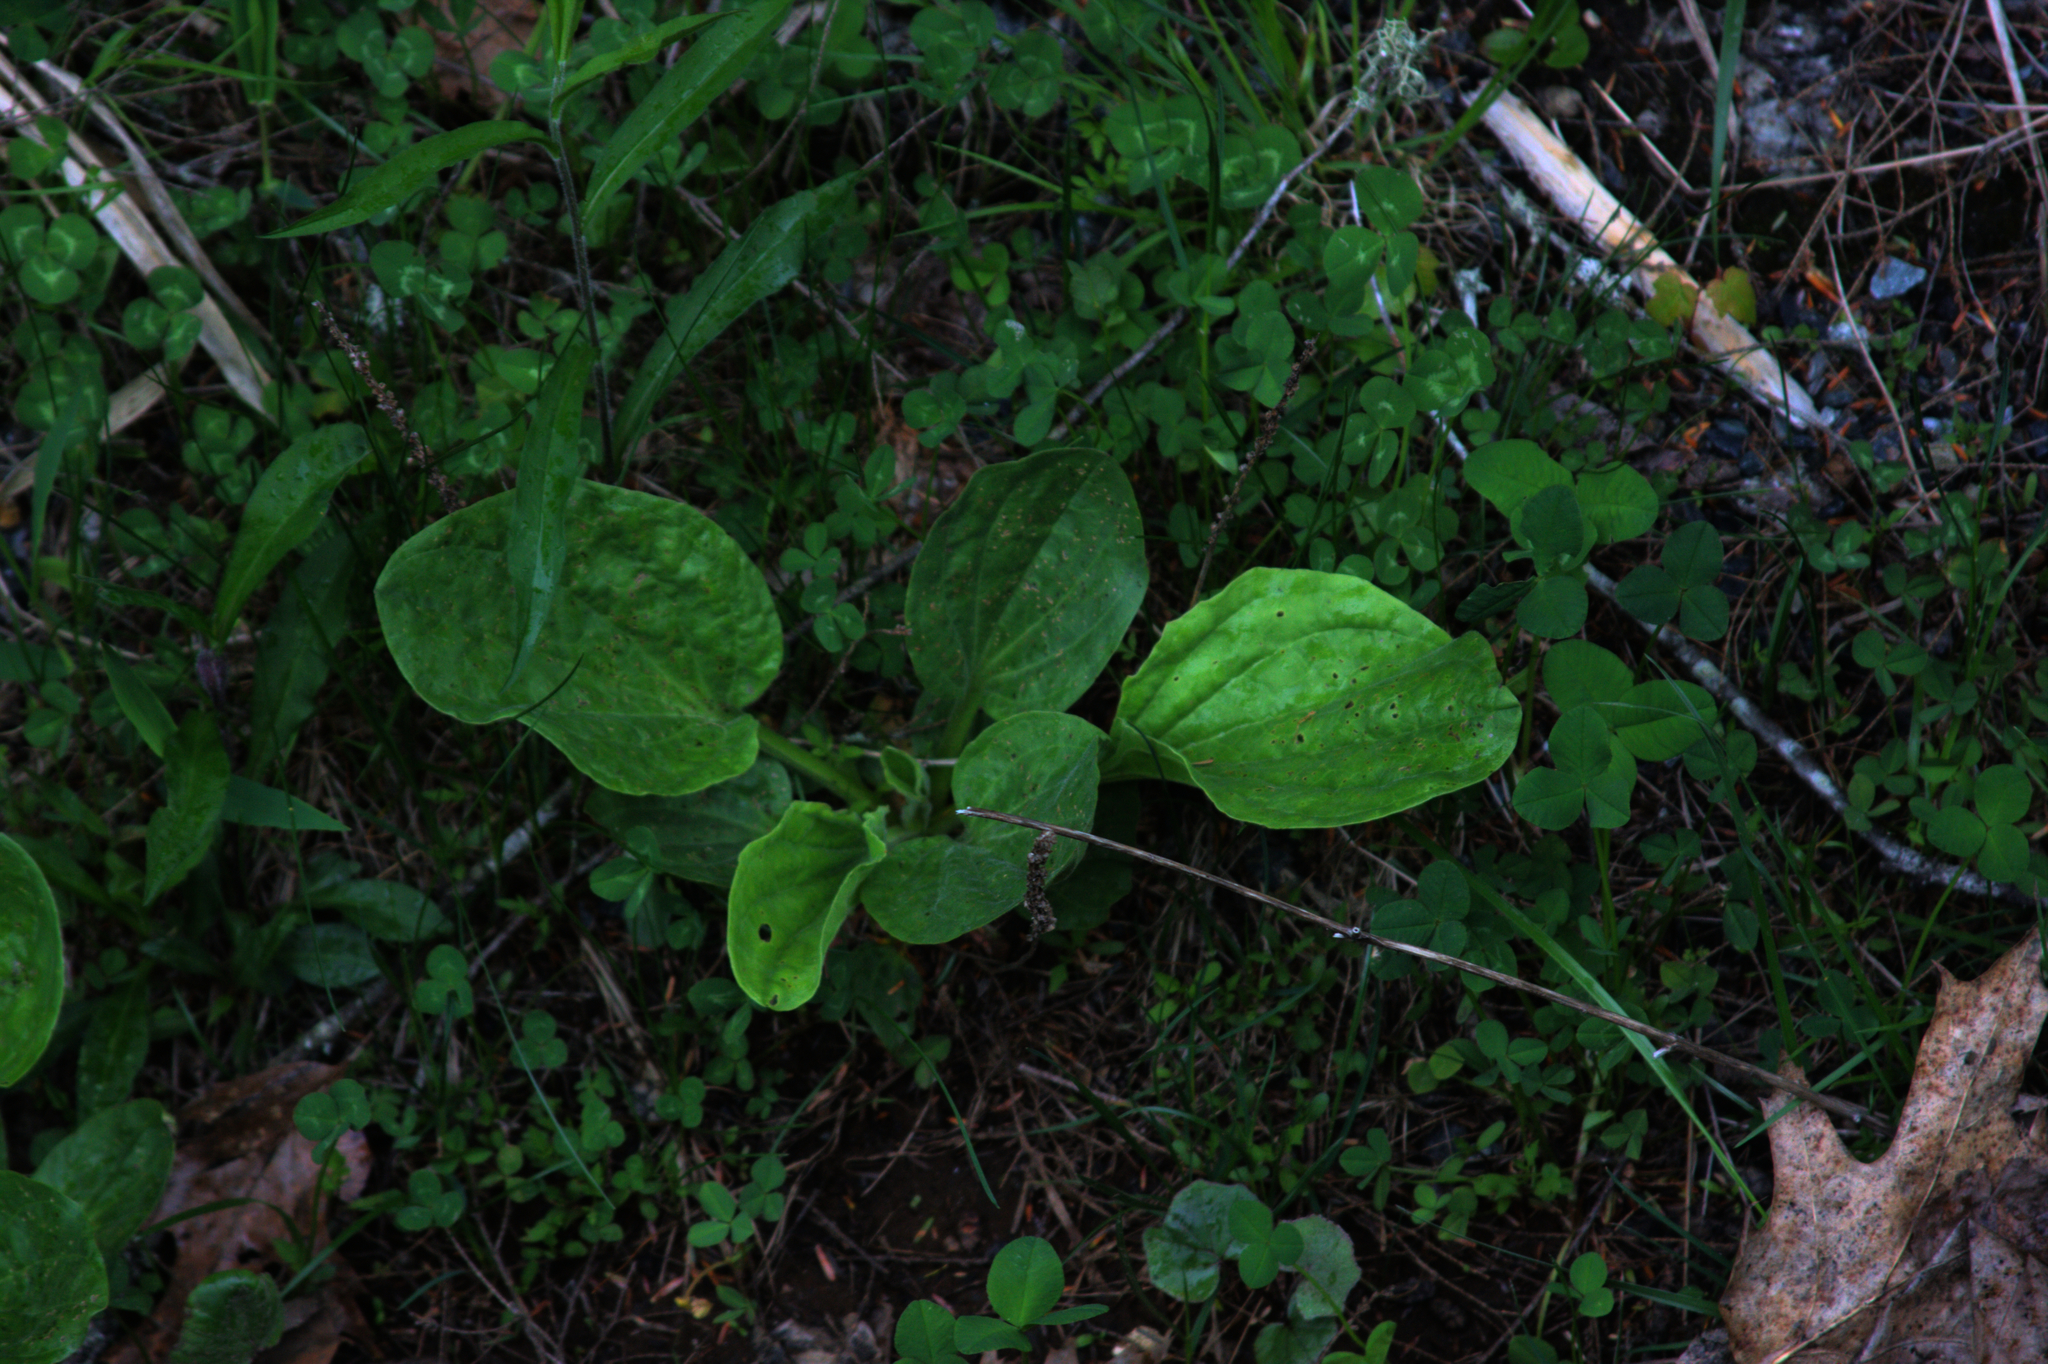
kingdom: Plantae
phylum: Tracheophyta
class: Magnoliopsida
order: Lamiales
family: Plantaginaceae
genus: Plantago
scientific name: Plantago major
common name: Common plantain
